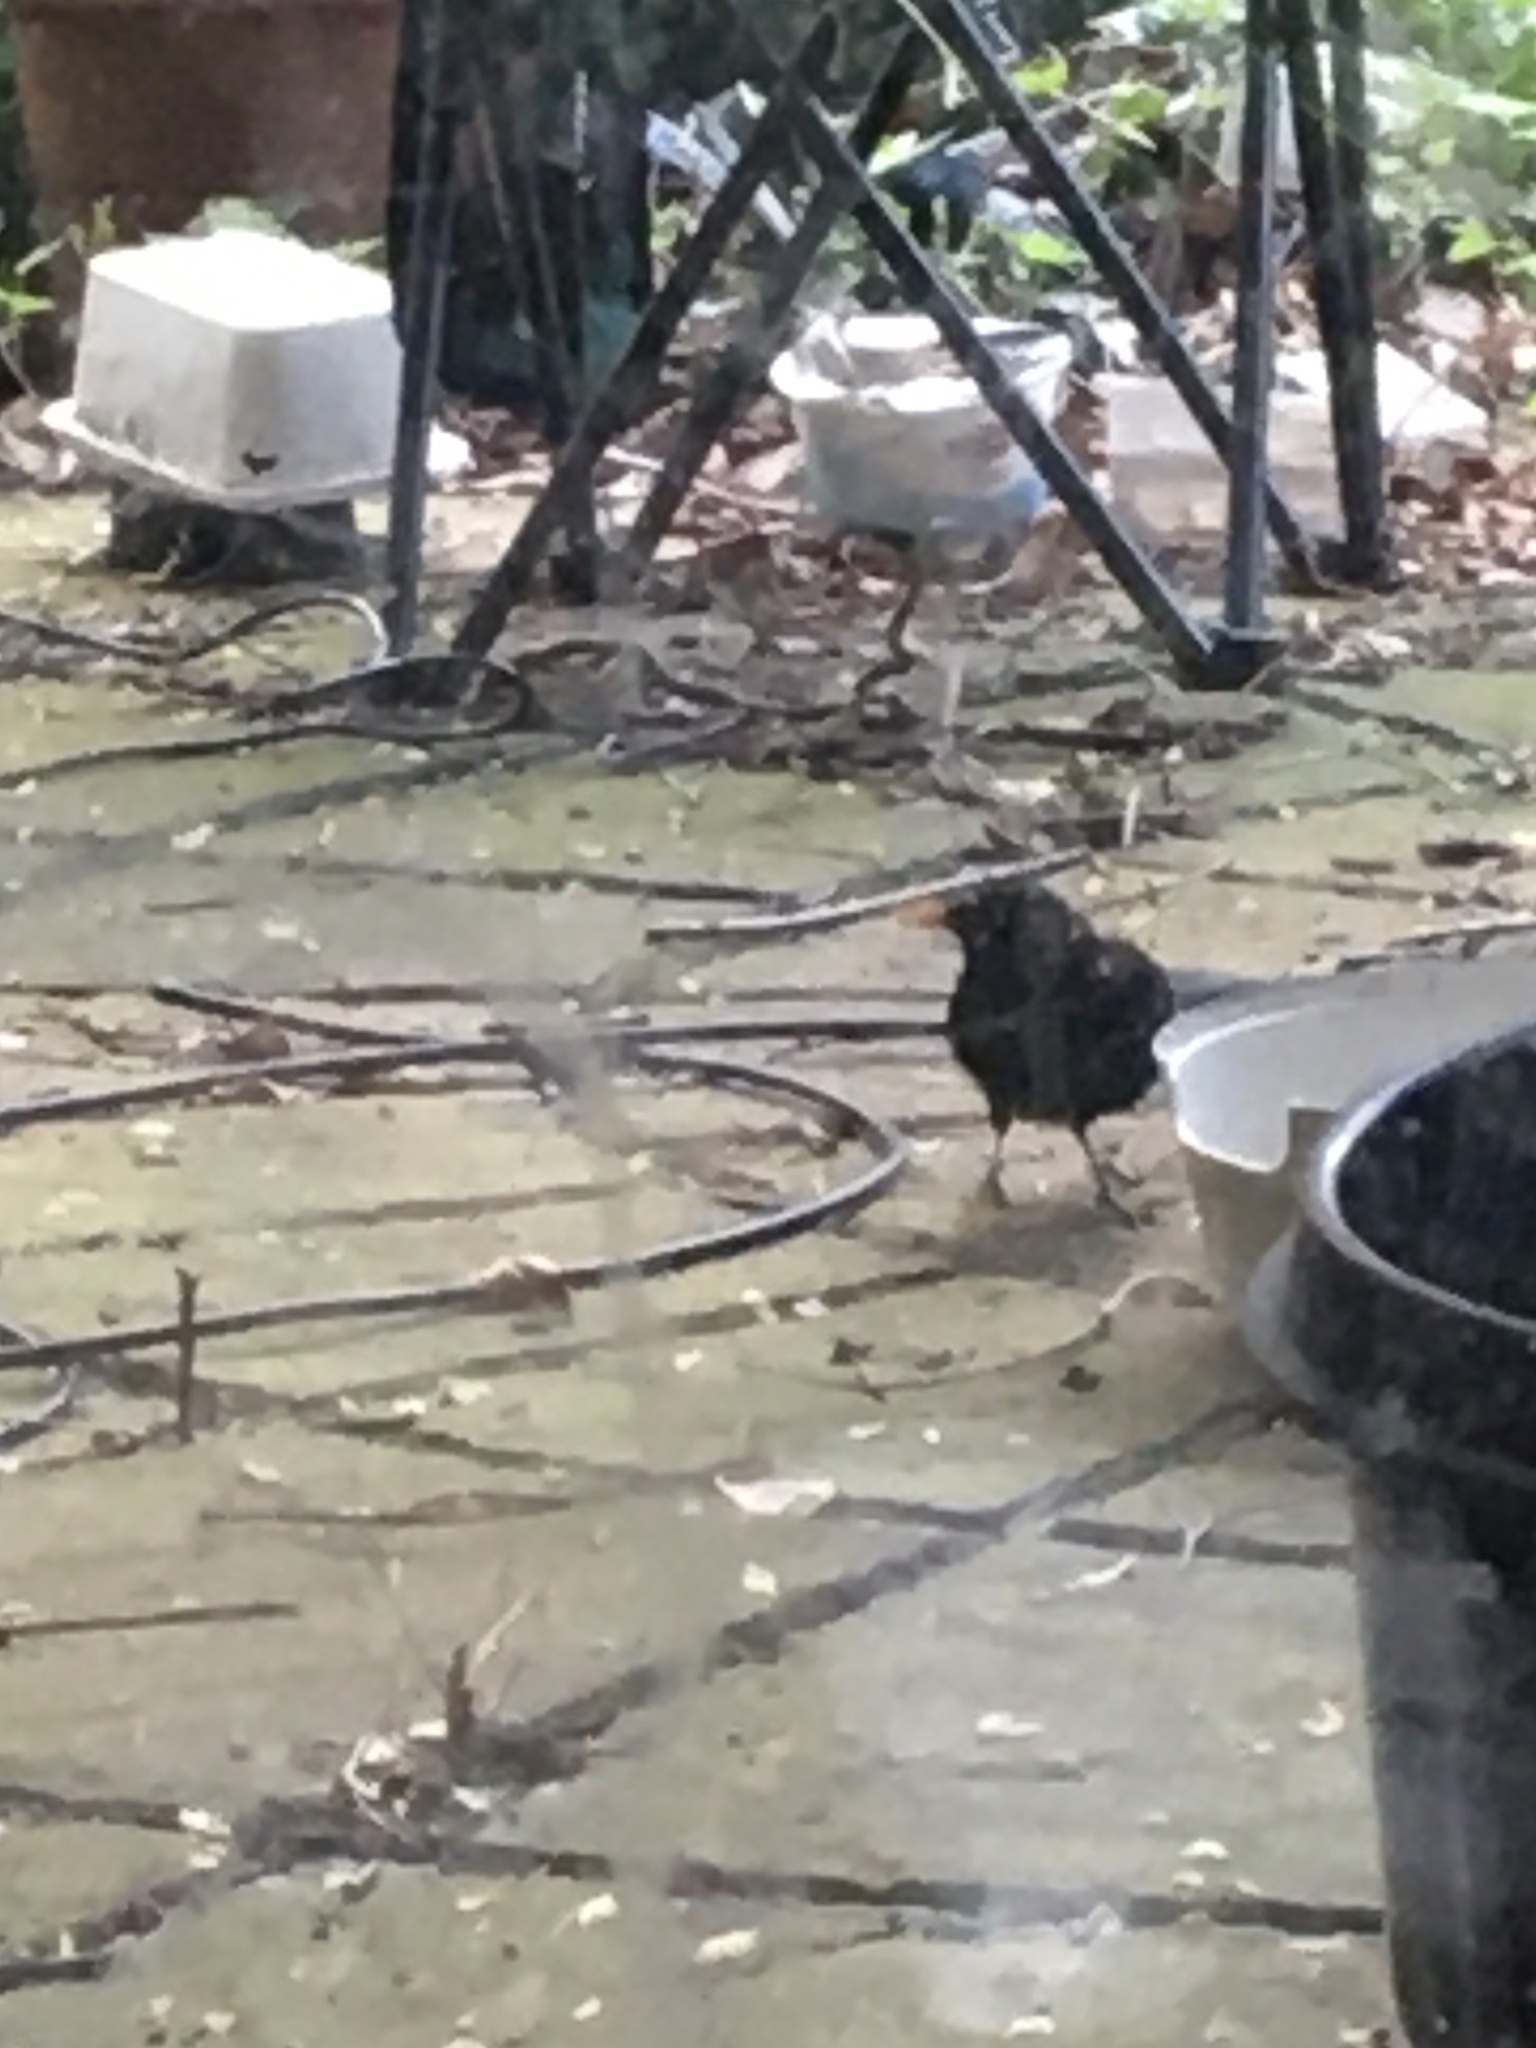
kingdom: Animalia
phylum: Chordata
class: Aves
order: Passeriformes
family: Turdidae
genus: Turdus
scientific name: Turdus merula
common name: Common blackbird
